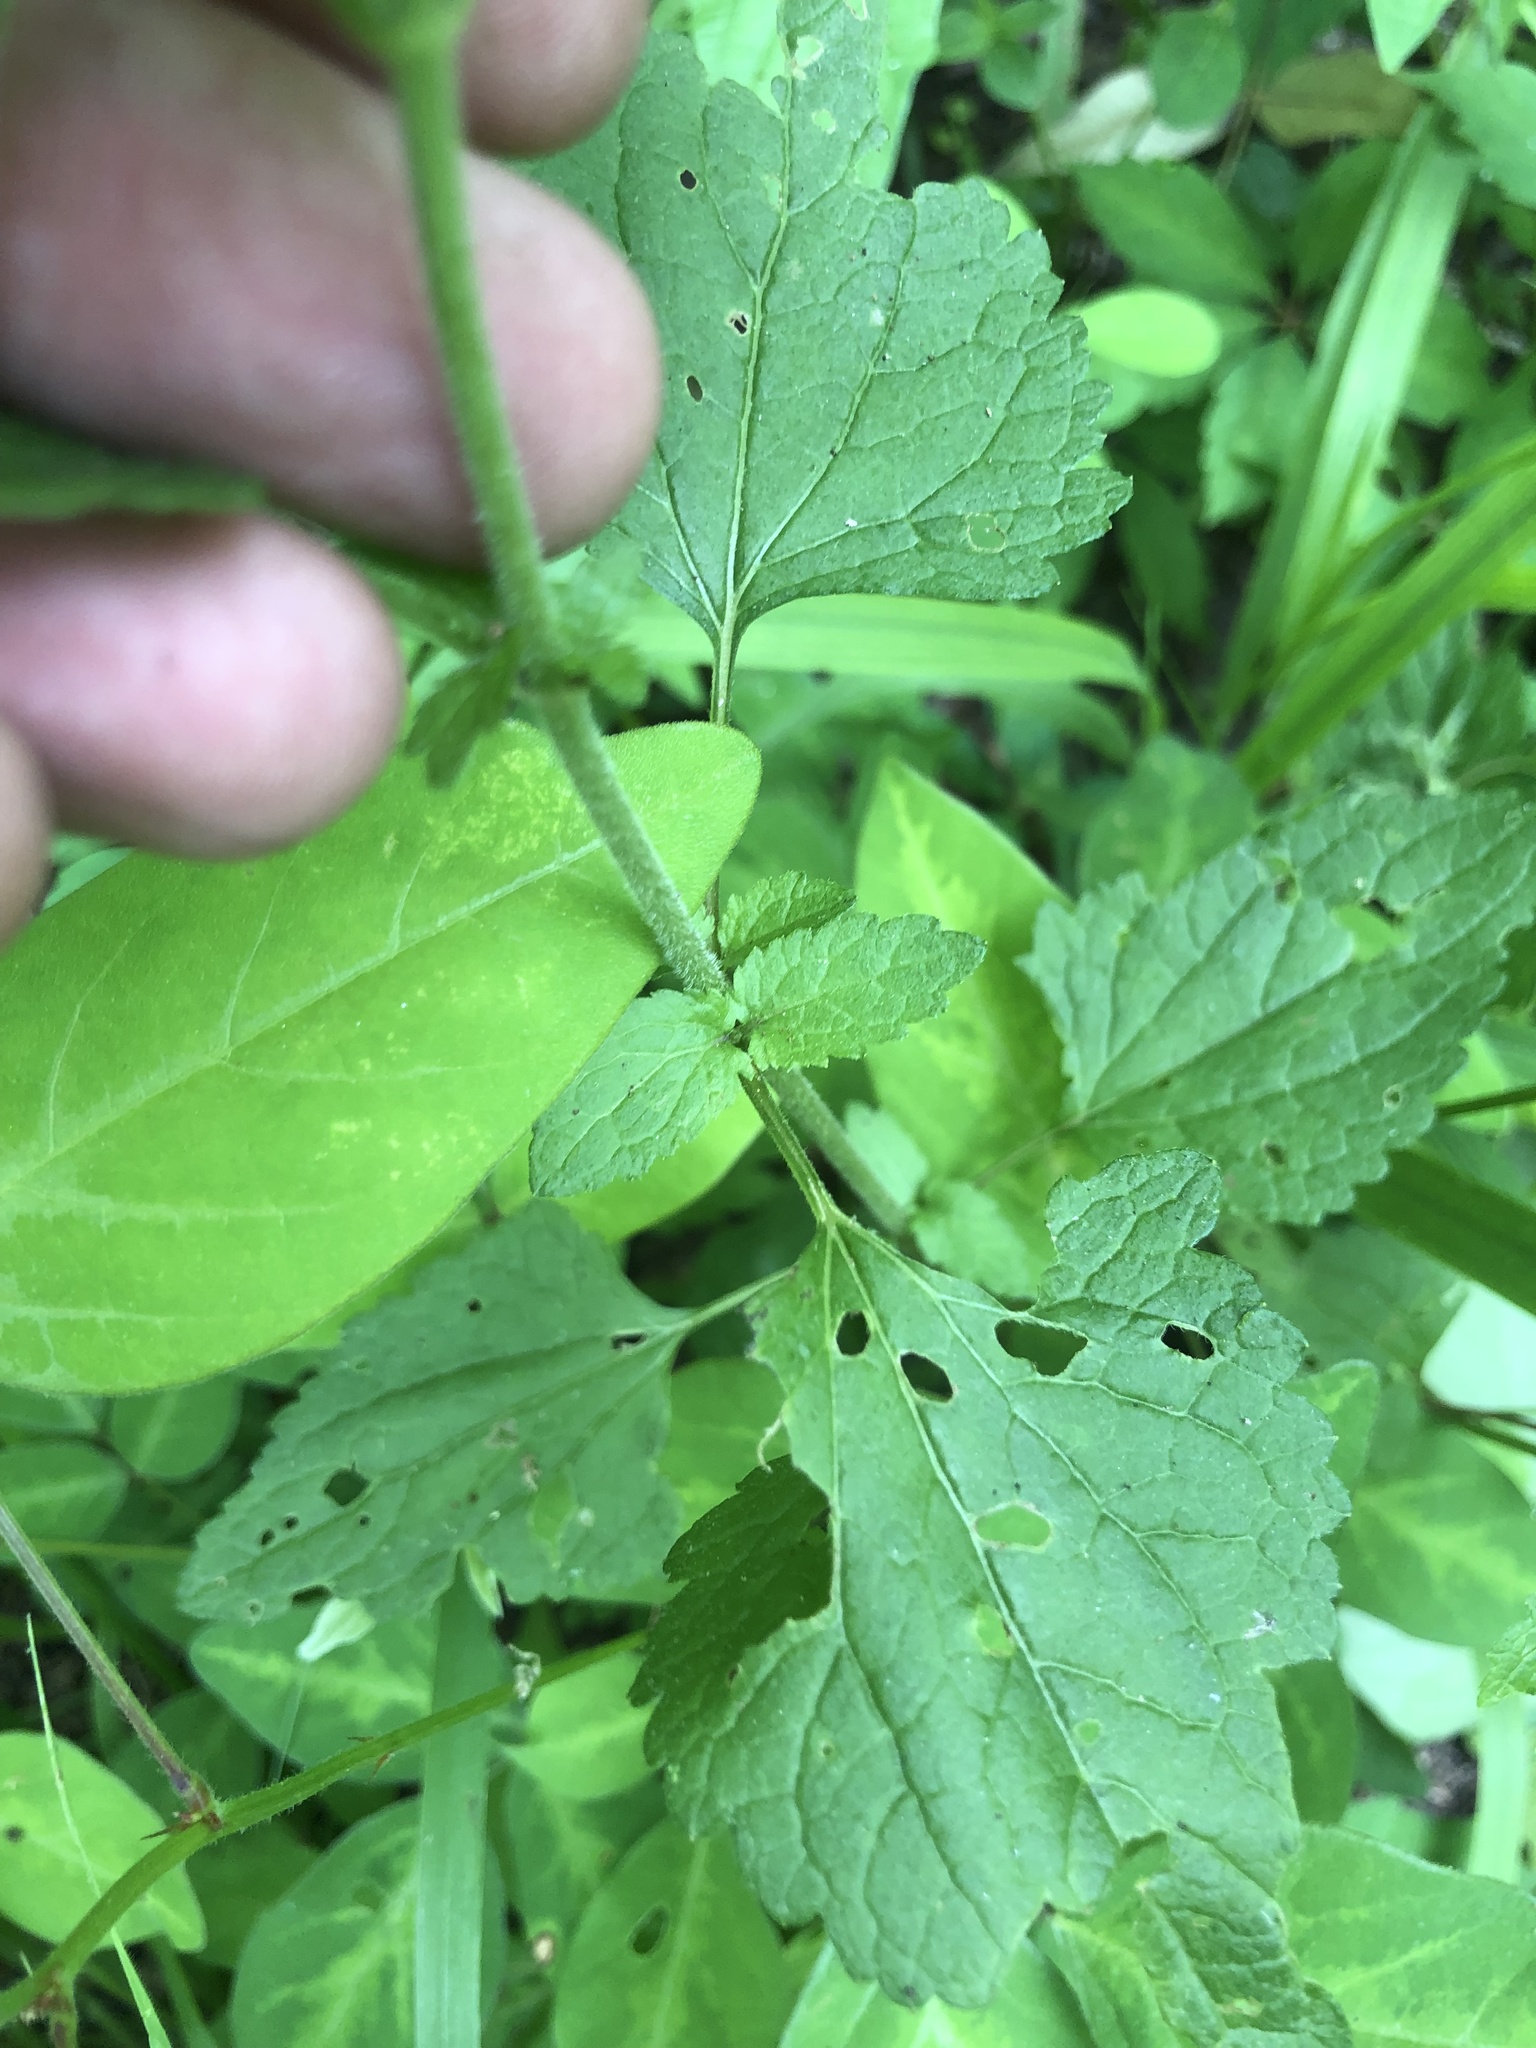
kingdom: Plantae
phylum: Tracheophyta
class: Magnoliopsida
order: Asterales
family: Asteraceae
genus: Conoclinium
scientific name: Conoclinium coelestinum
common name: Blue mistflower
